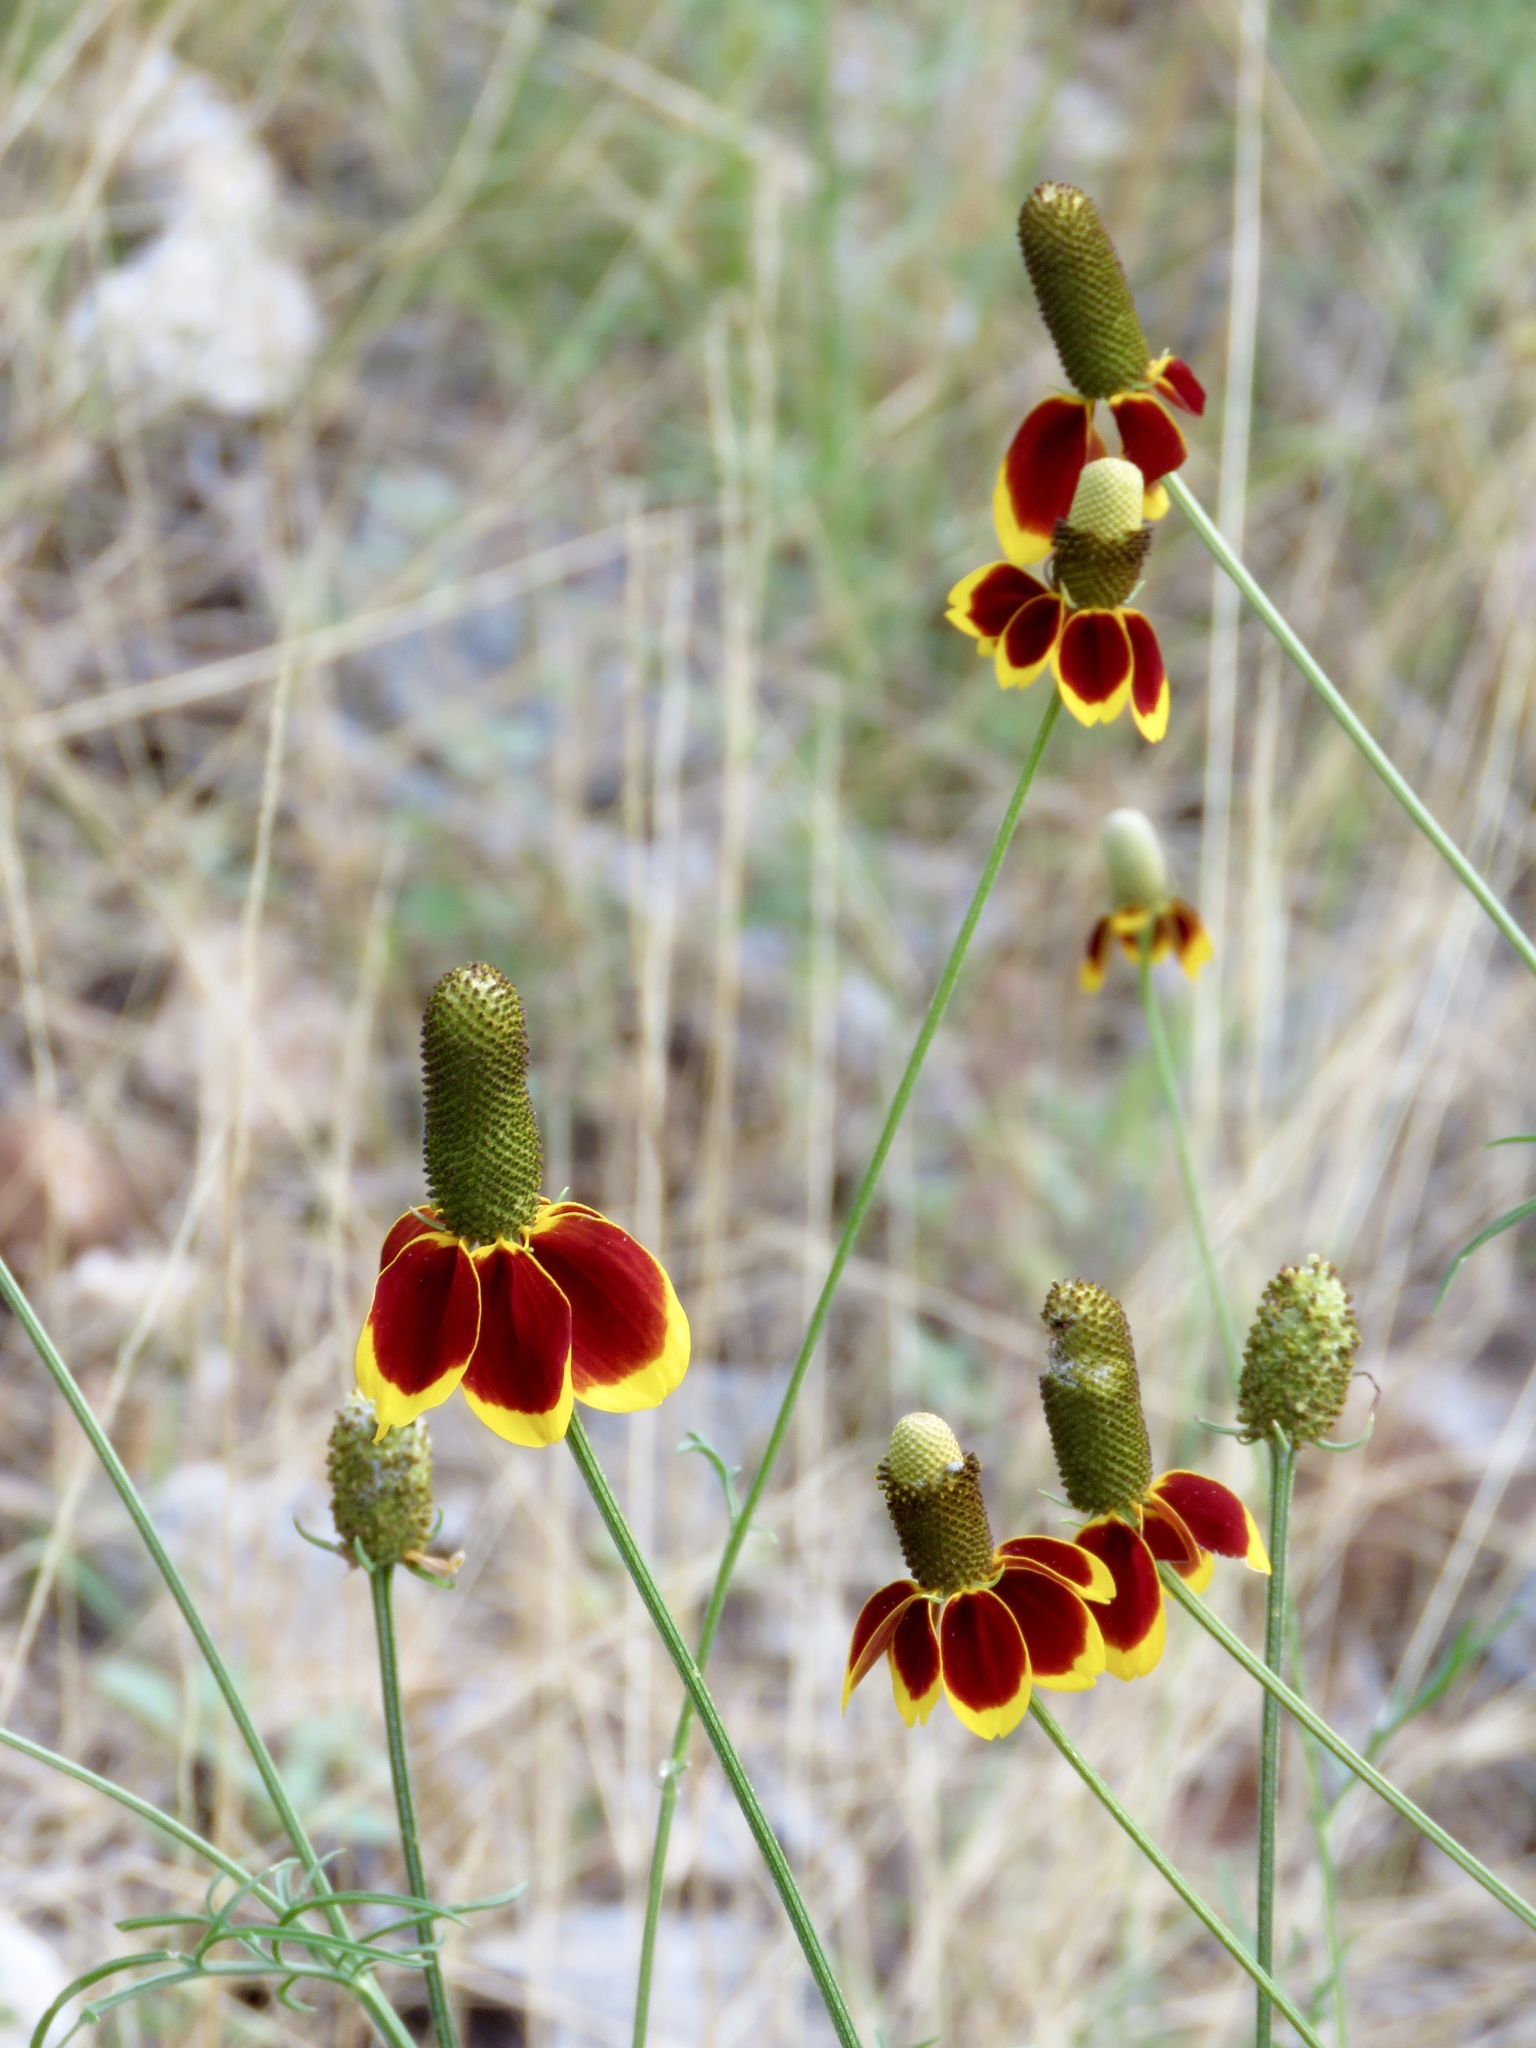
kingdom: Plantae
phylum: Tracheophyta
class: Magnoliopsida
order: Asterales
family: Asteraceae
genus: Ratibida
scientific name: Ratibida columnifera
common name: Prairie coneflower
